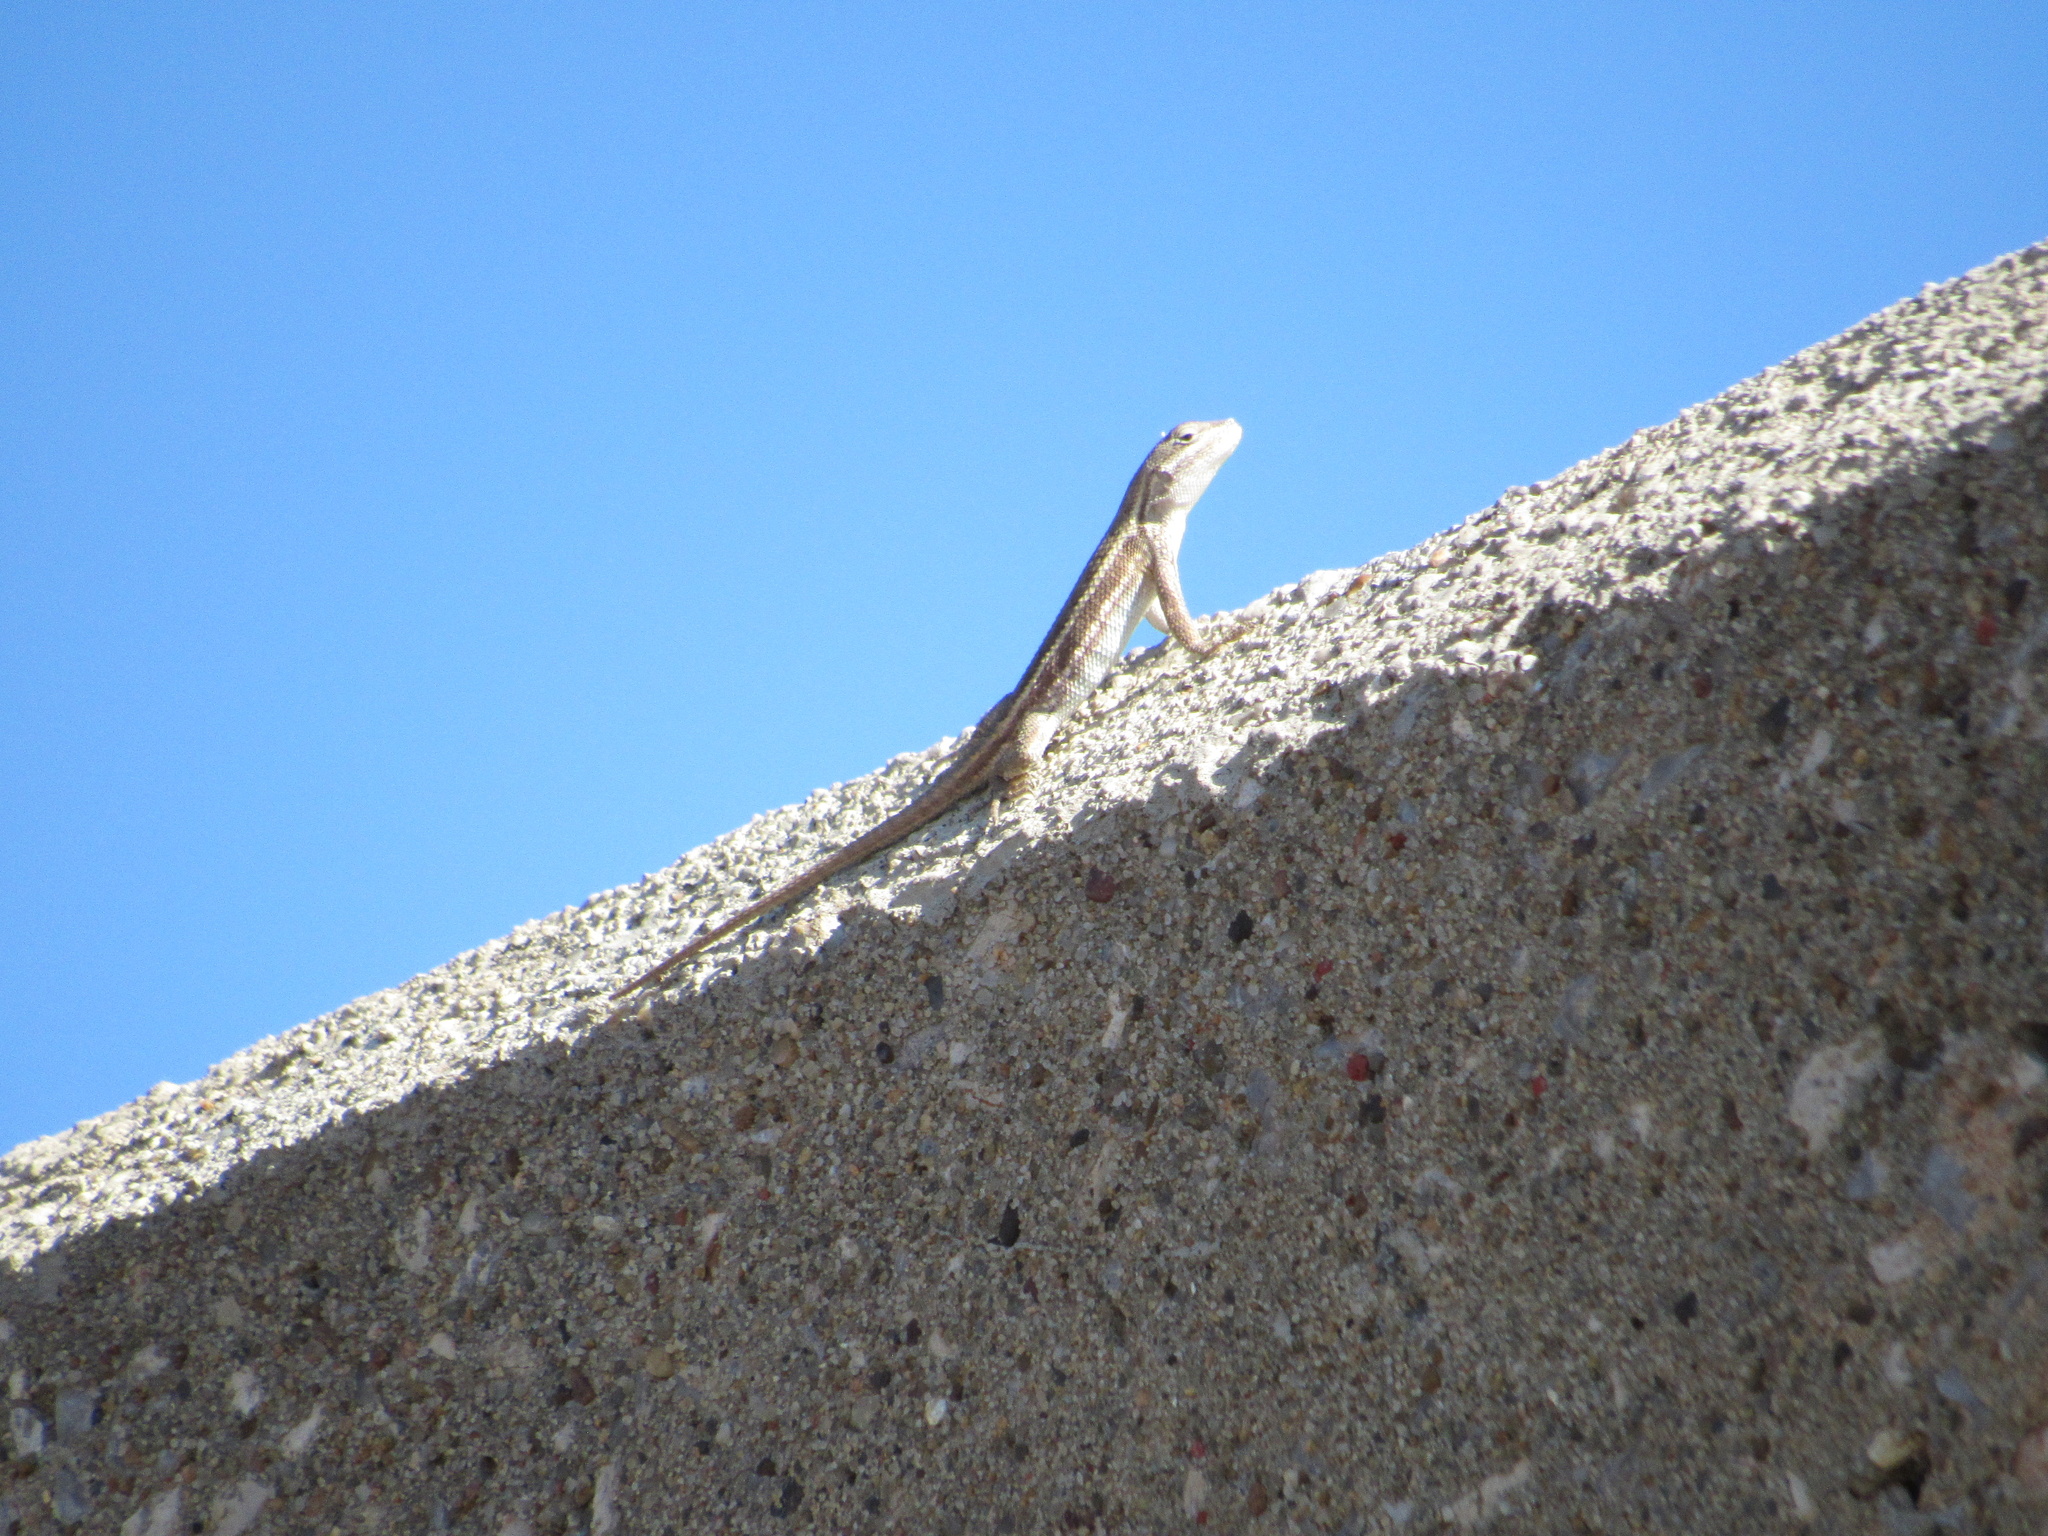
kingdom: Animalia
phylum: Chordata
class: Squamata
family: Phrynosomatidae
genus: Sceloporus
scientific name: Sceloporus consobrinus
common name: Southern prairie lizard
